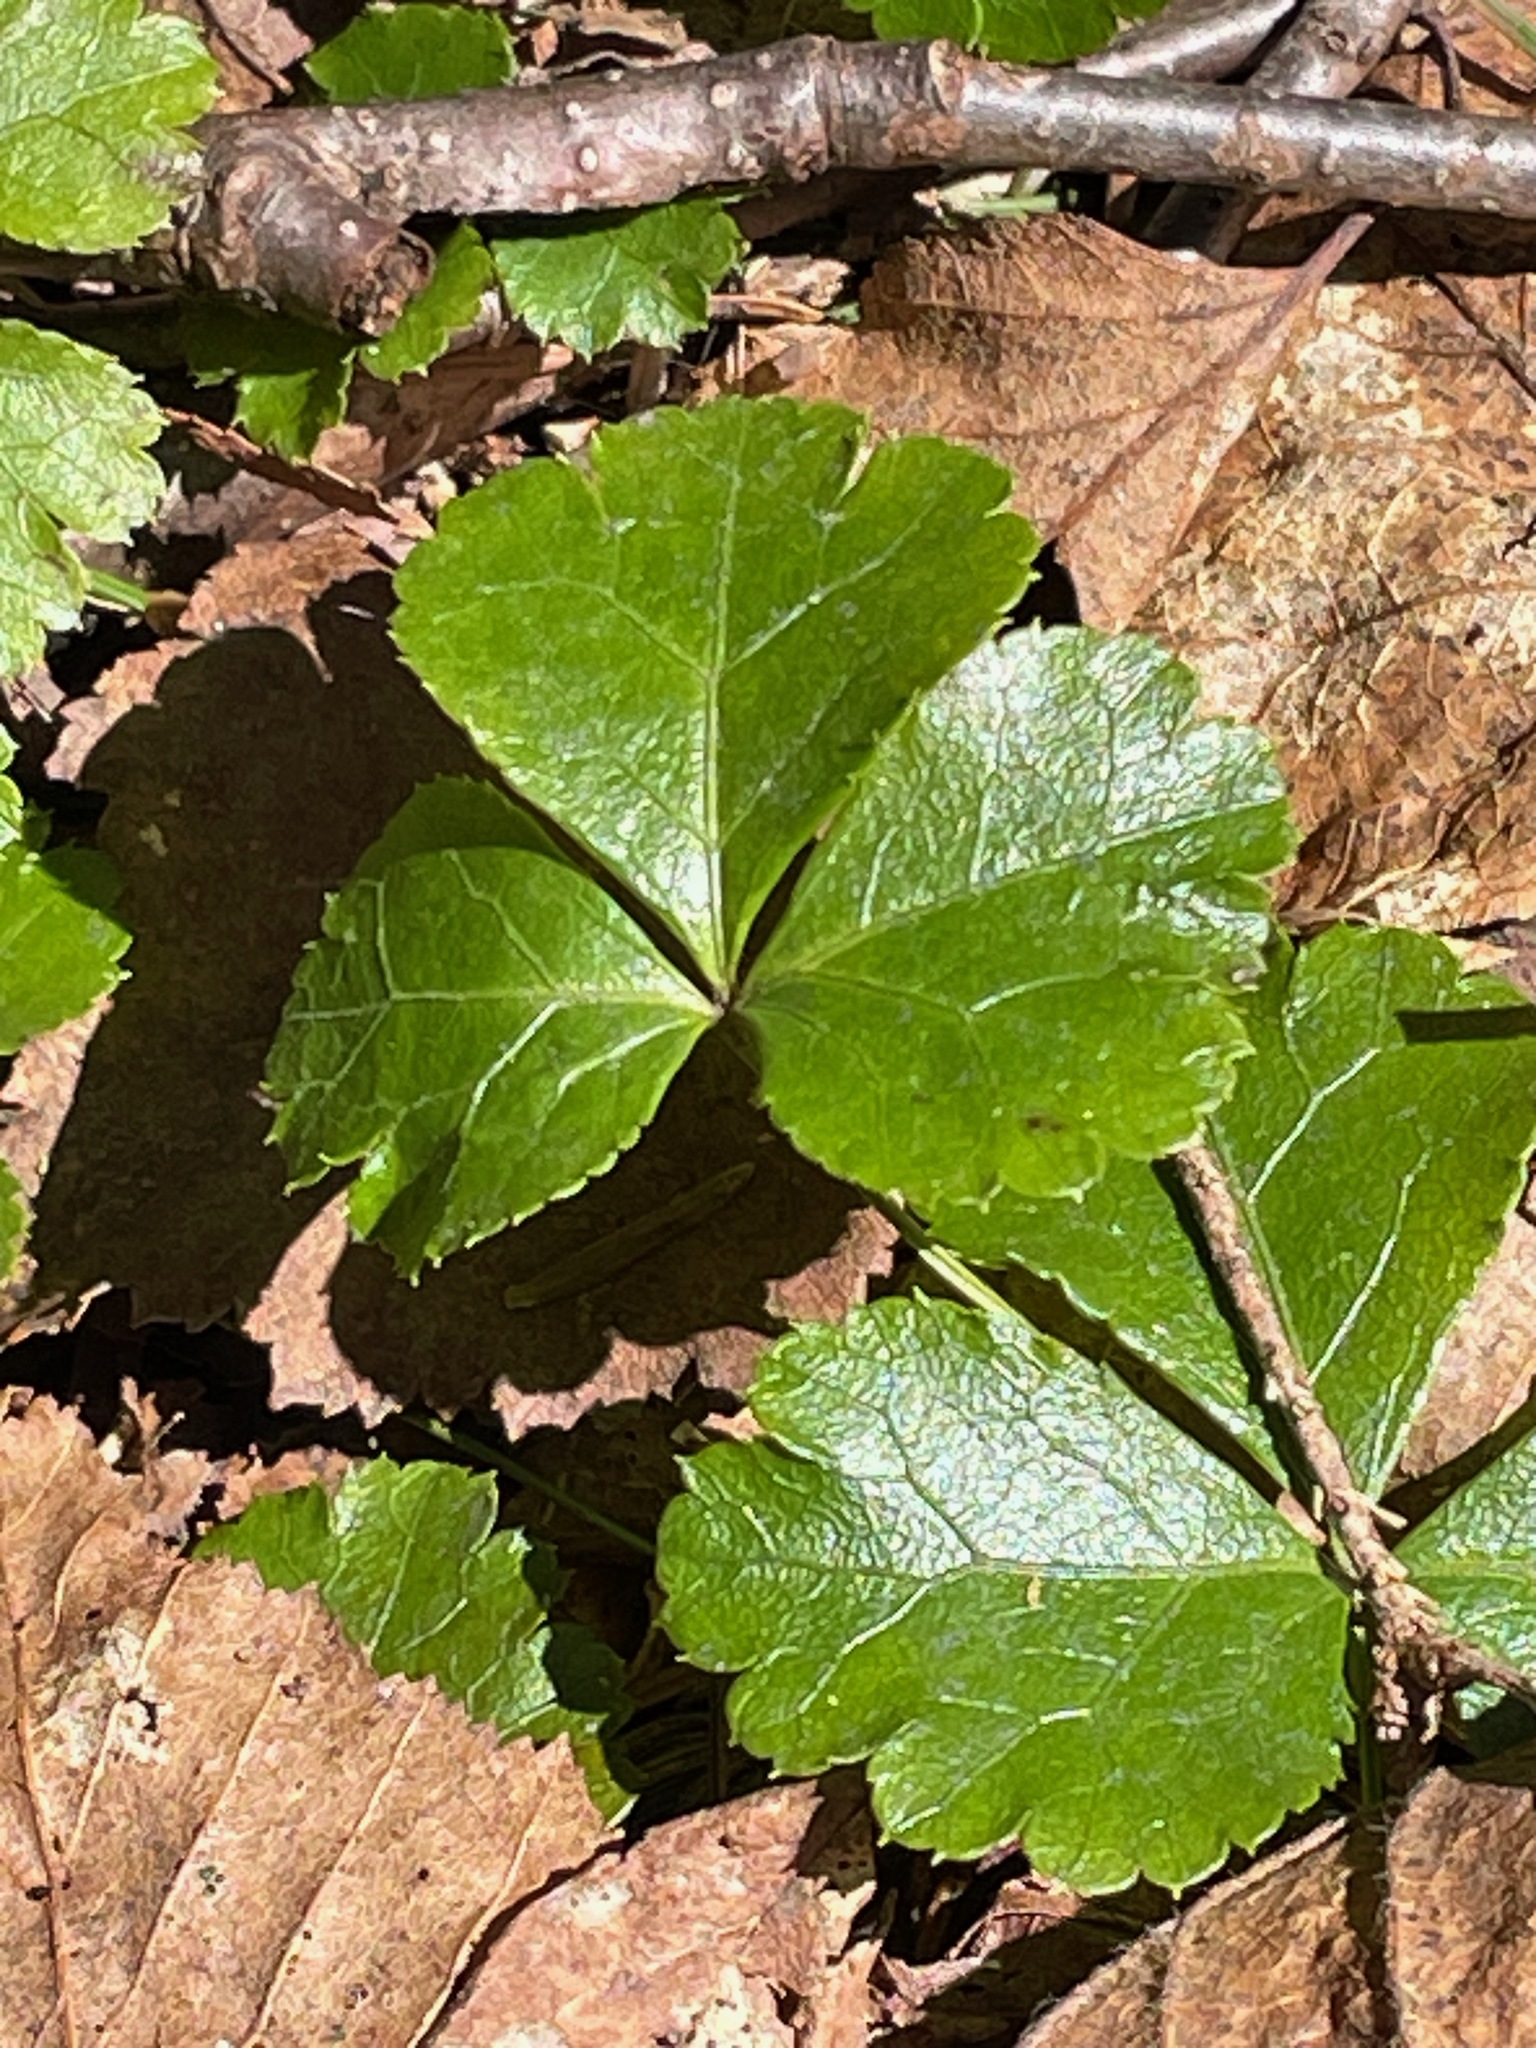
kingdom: Plantae
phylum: Tracheophyta
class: Magnoliopsida
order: Ranunculales
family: Ranunculaceae
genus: Coptis
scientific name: Coptis trifolia
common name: Canker-root
